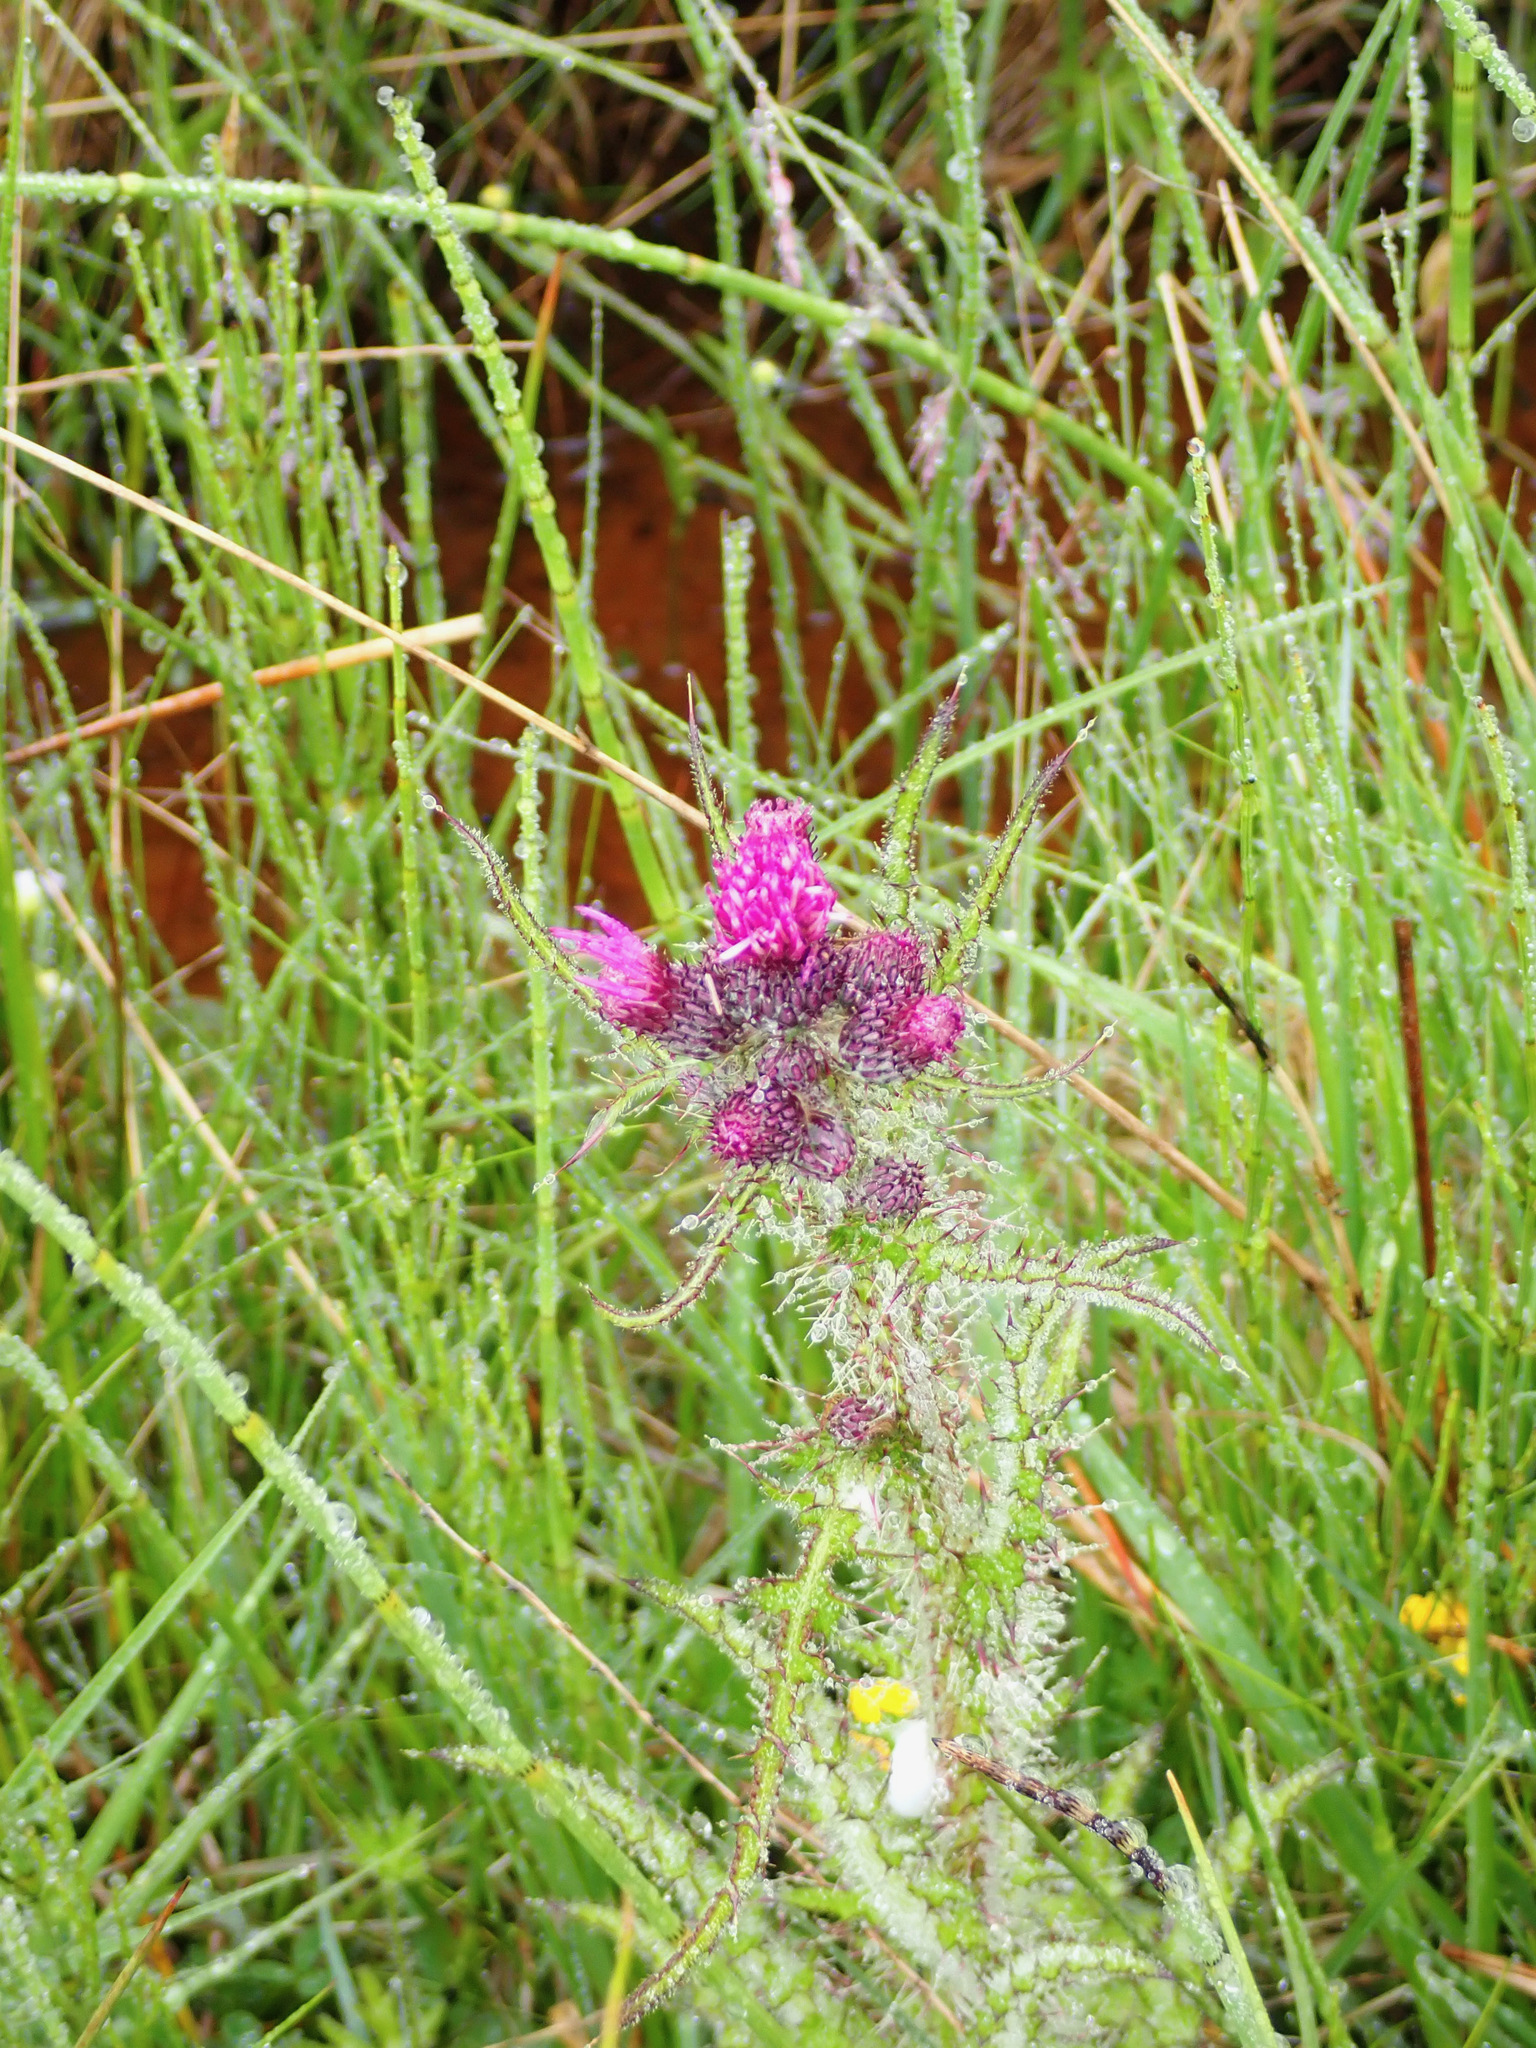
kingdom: Plantae
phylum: Tracheophyta
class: Magnoliopsida
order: Asterales
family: Asteraceae
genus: Cirsium
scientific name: Cirsium palustre
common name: Marsh thistle
